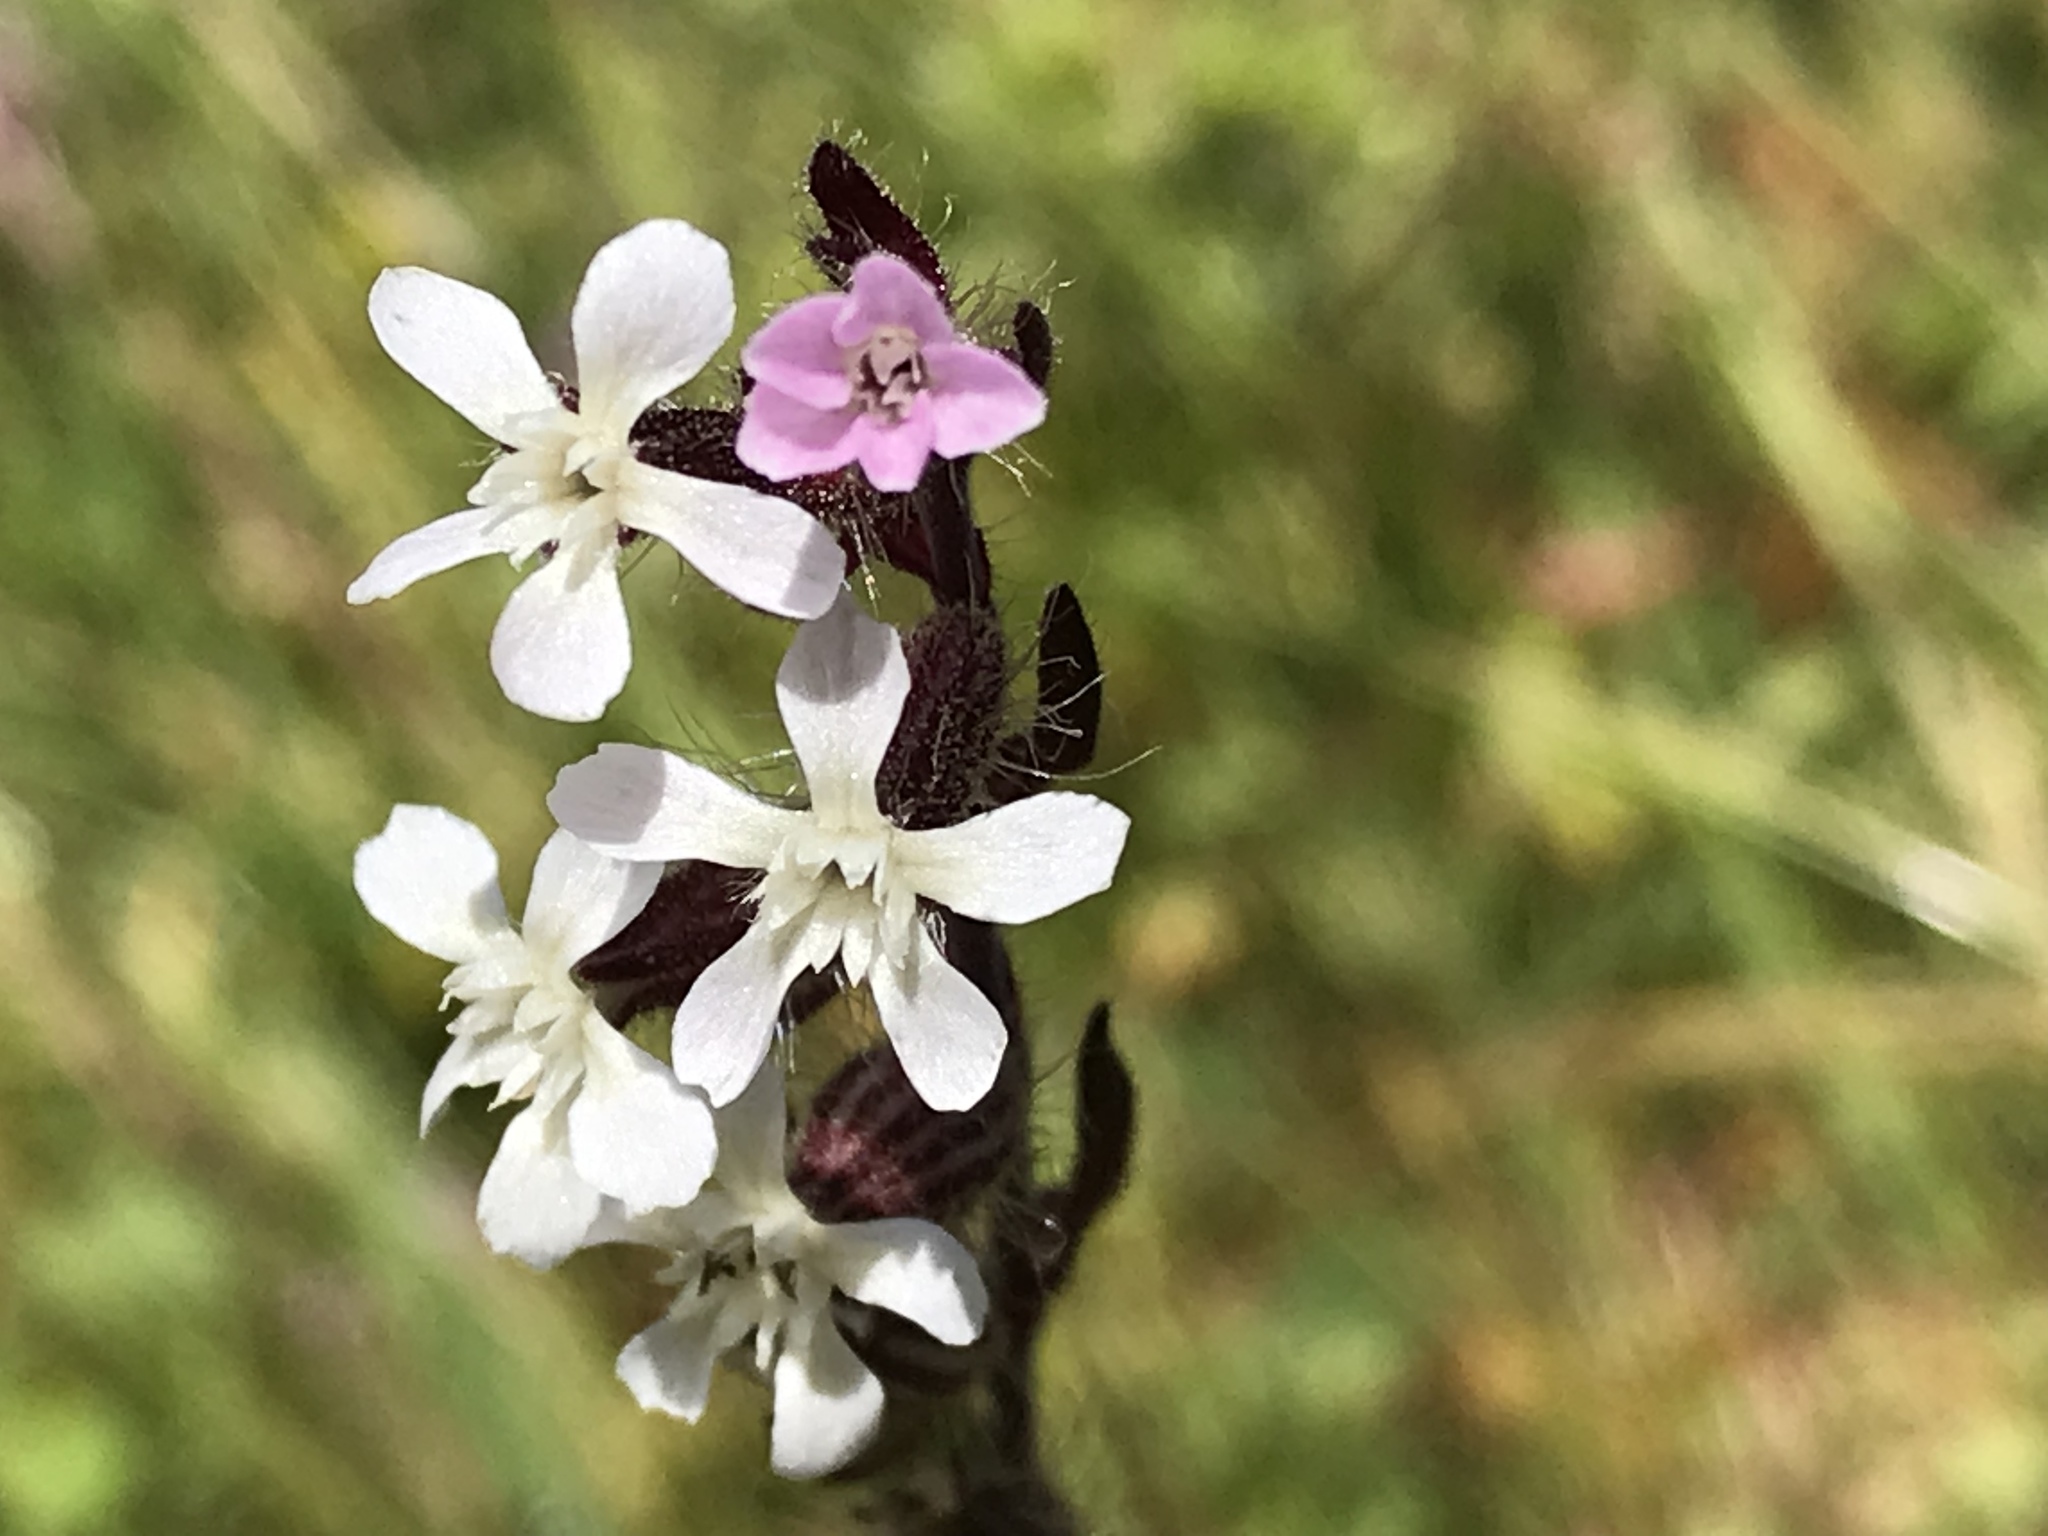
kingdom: Plantae
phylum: Tracheophyta
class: Magnoliopsida
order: Caryophyllales
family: Caryophyllaceae
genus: Silene
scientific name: Silene gallica
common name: Small-flowered catchfly
